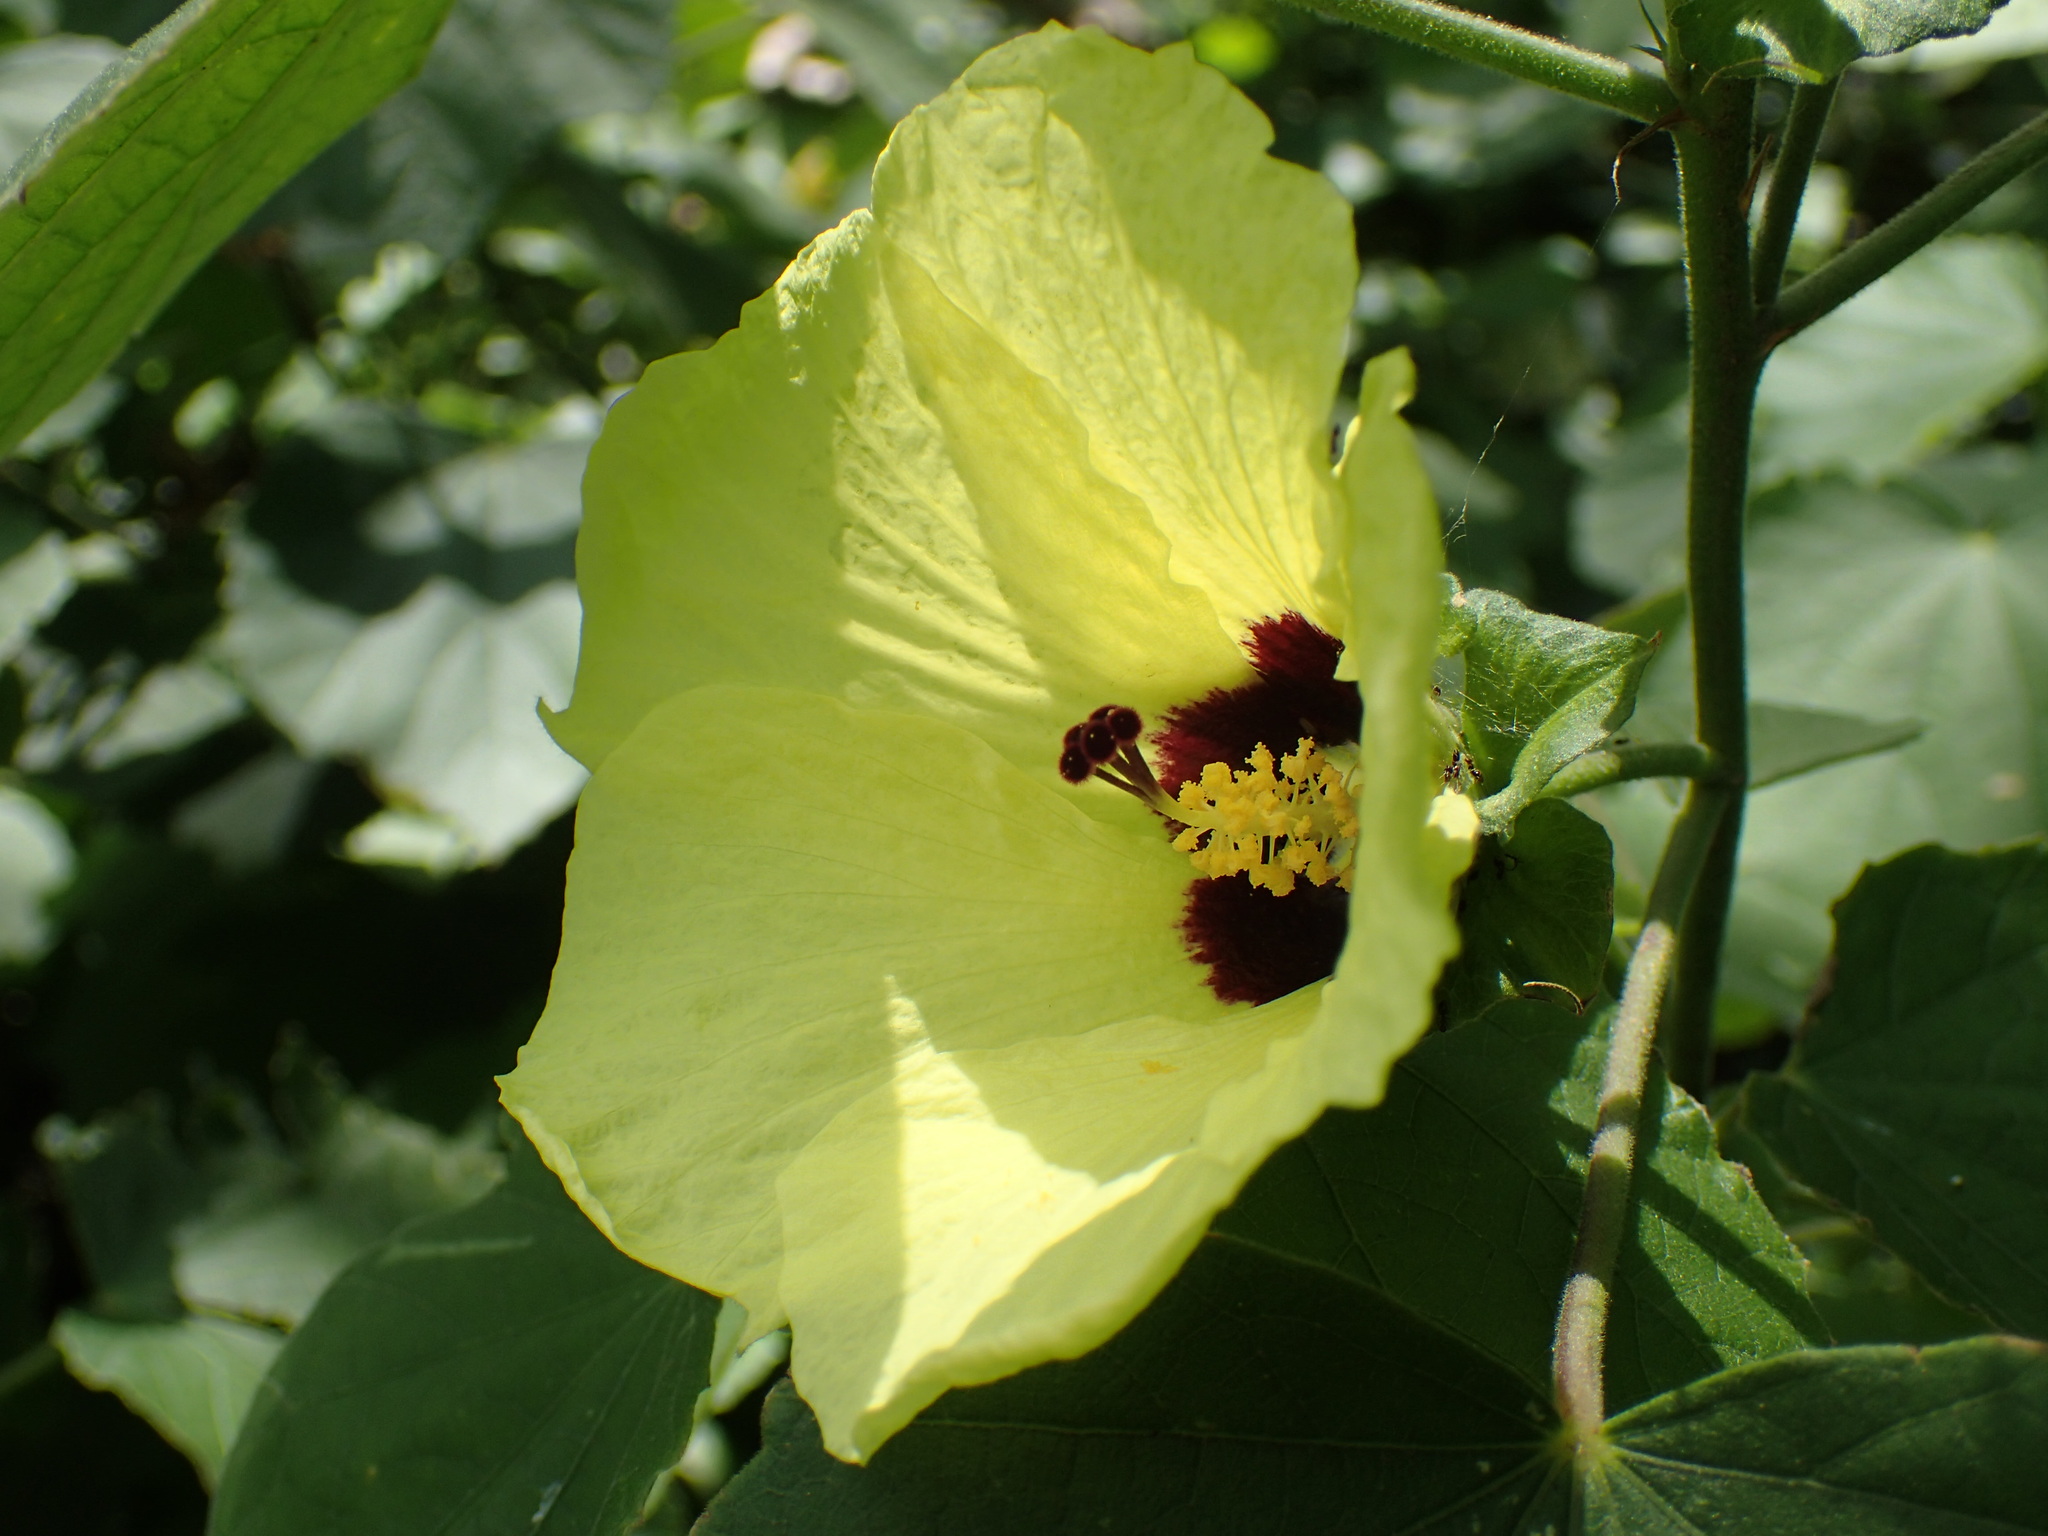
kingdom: Plantae
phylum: Tracheophyta
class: Magnoliopsida
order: Malvales
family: Malvaceae
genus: Hibiscus
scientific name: Hibiscus calyphyllus
